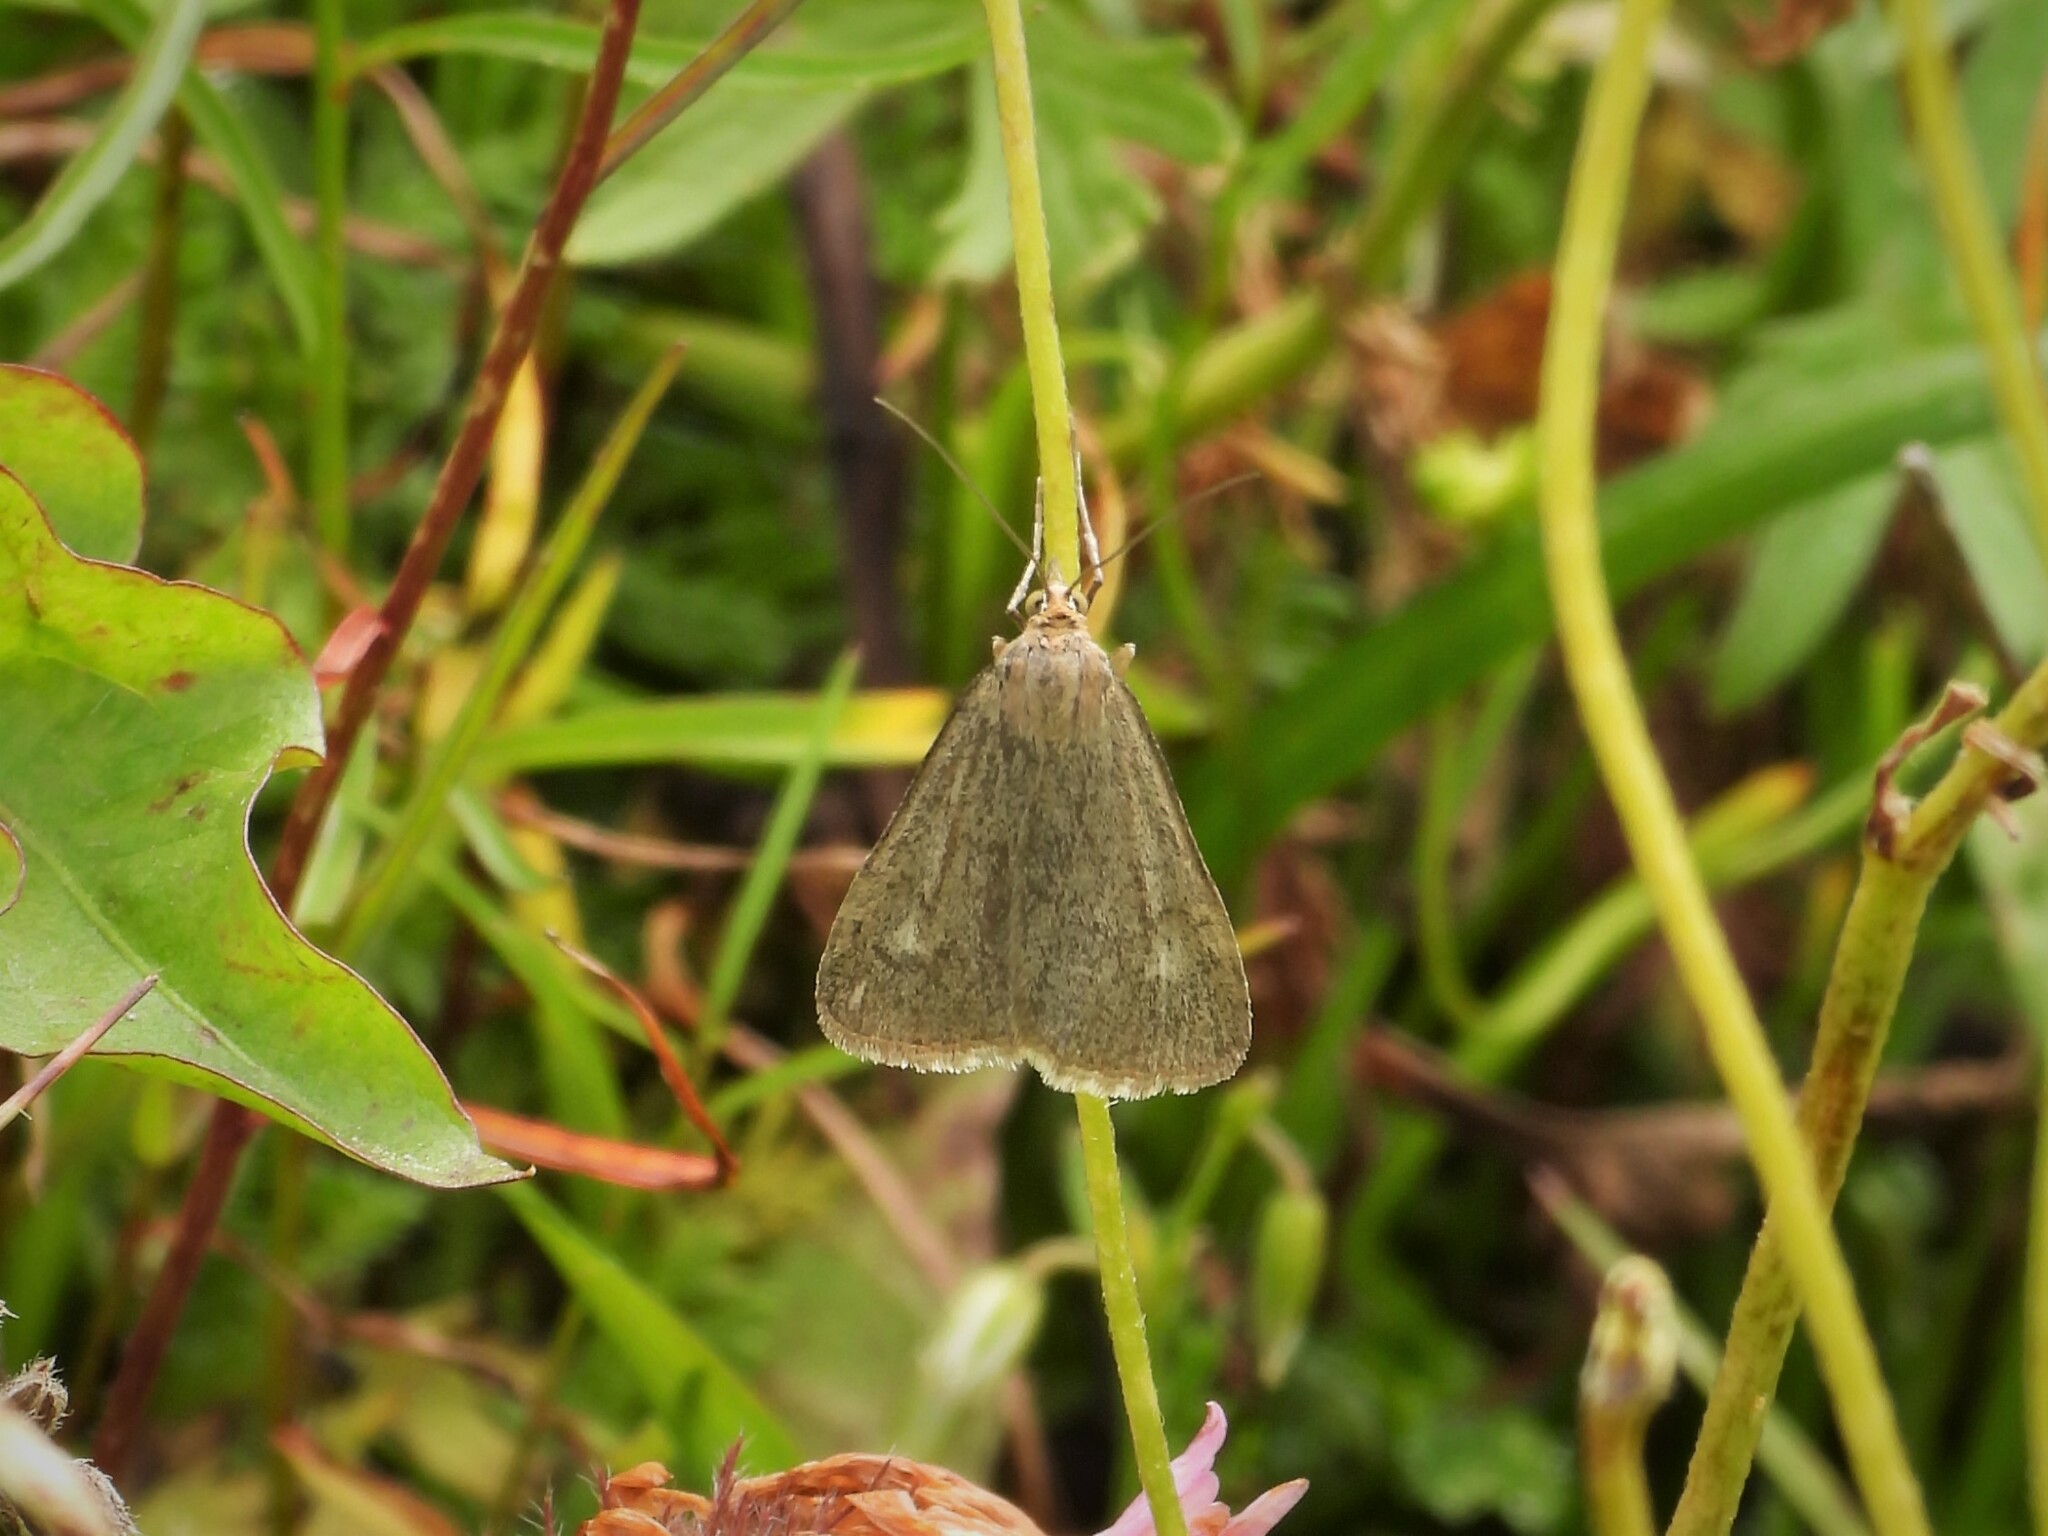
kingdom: Animalia
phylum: Arthropoda
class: Insecta
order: Lepidoptera
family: Crambidae
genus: Pyrausta
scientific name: Pyrausta alpinalis
